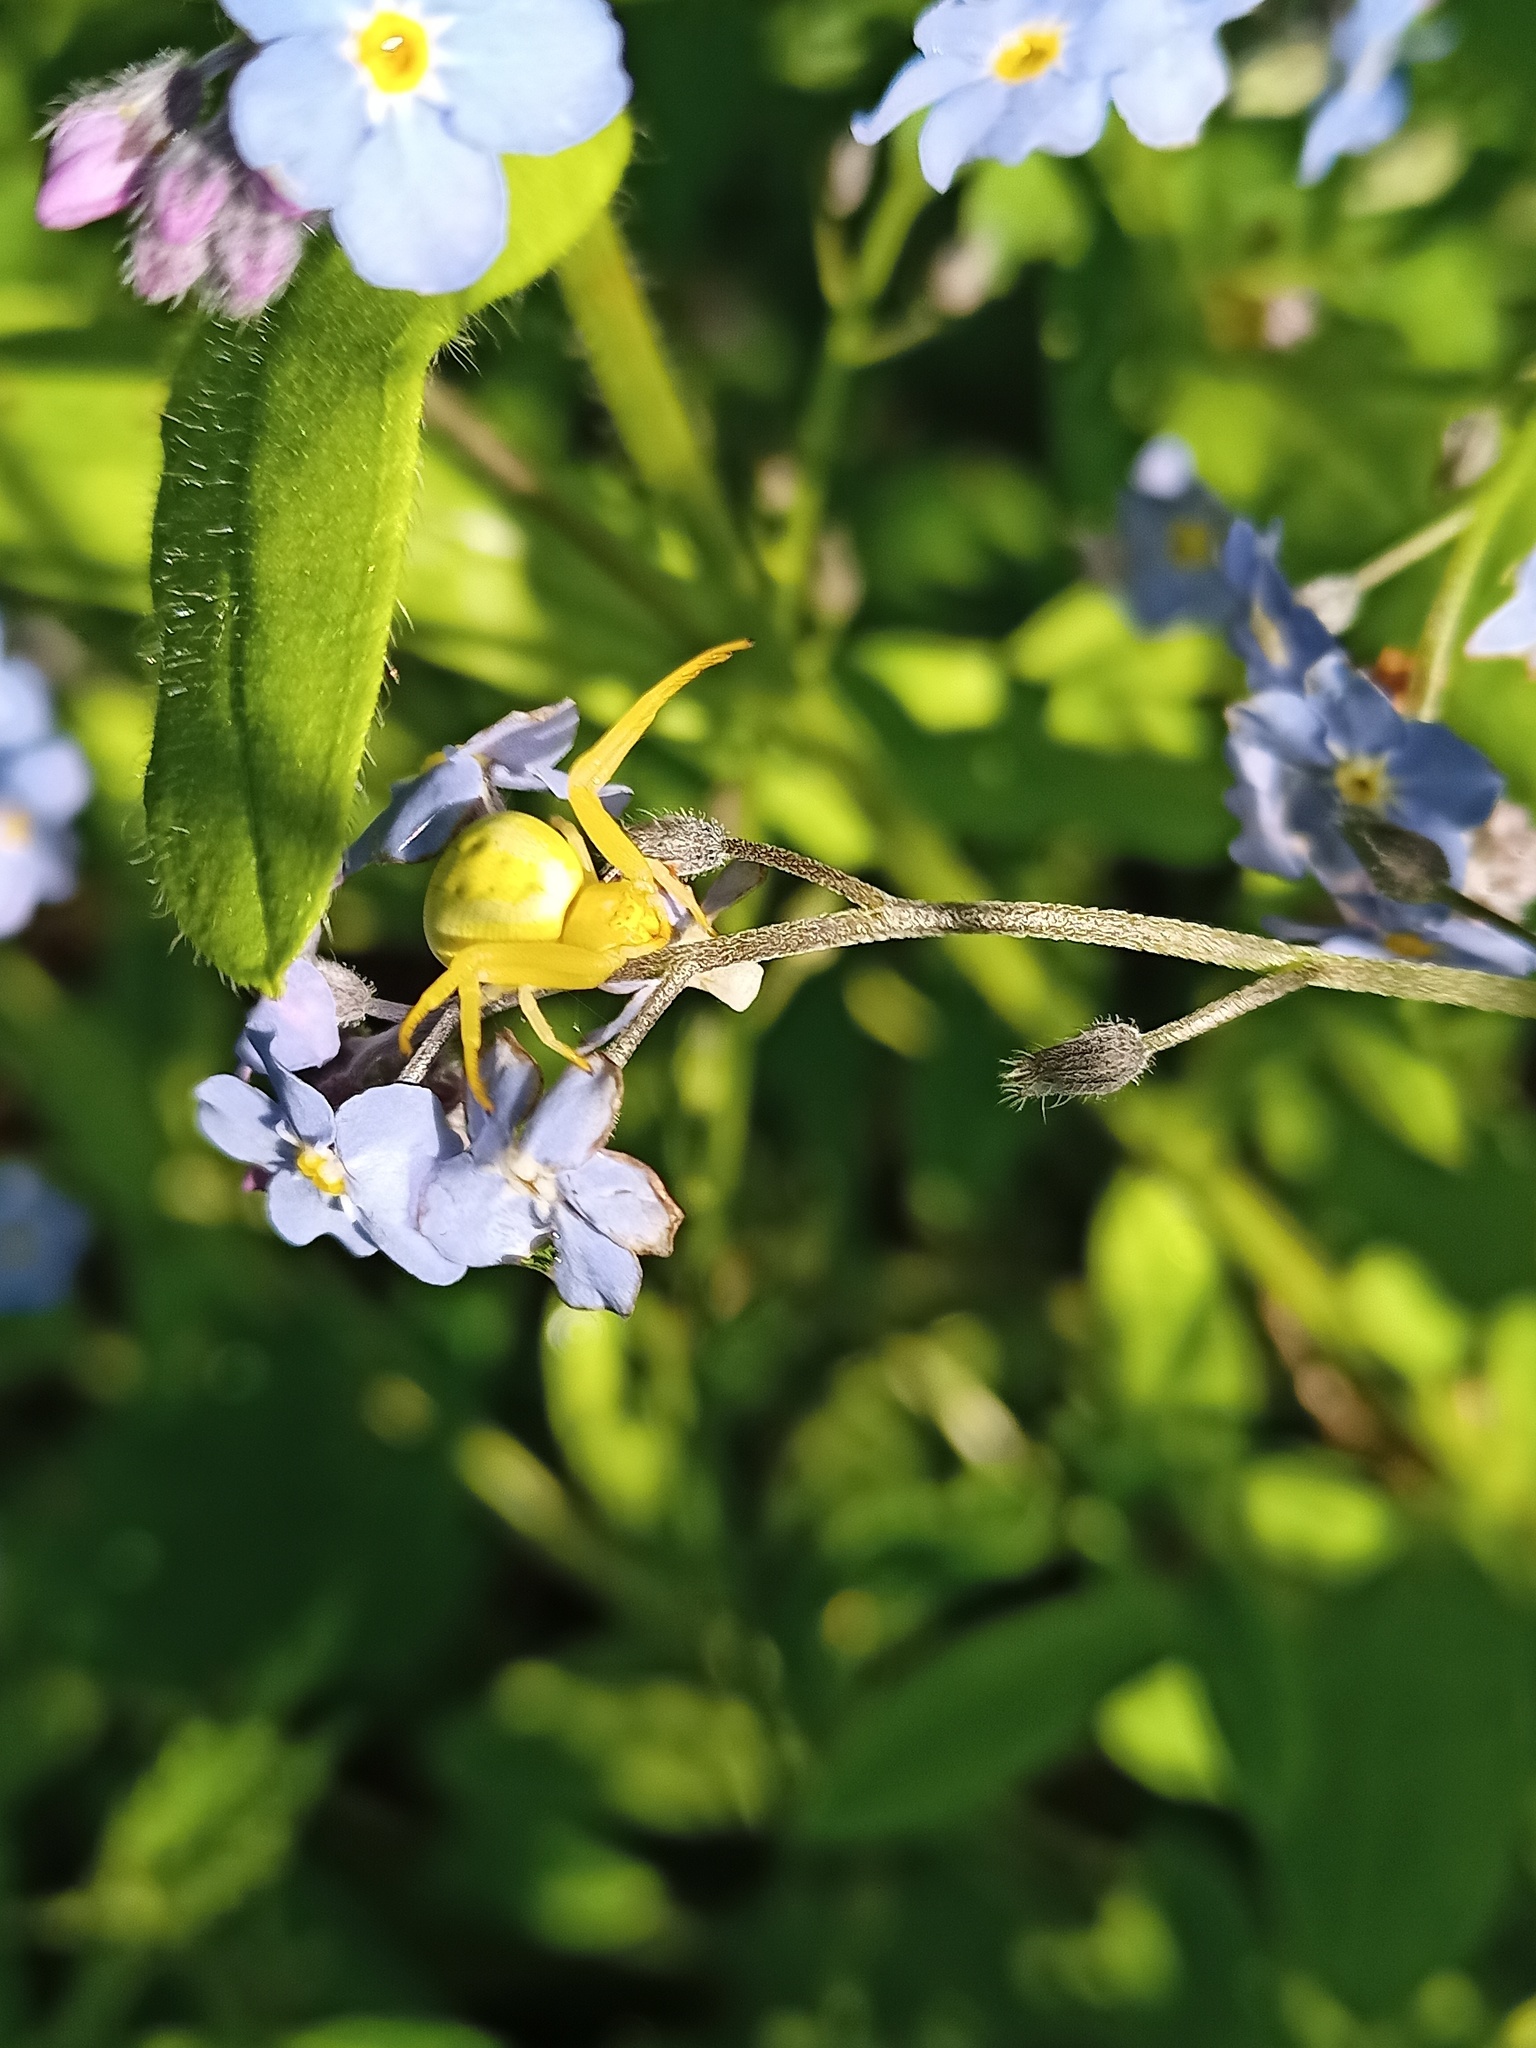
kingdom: Animalia
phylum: Arthropoda
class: Arachnida
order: Araneae
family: Thomisidae
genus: Misumena
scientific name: Misumena vatia
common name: Goldenrod crab spider
